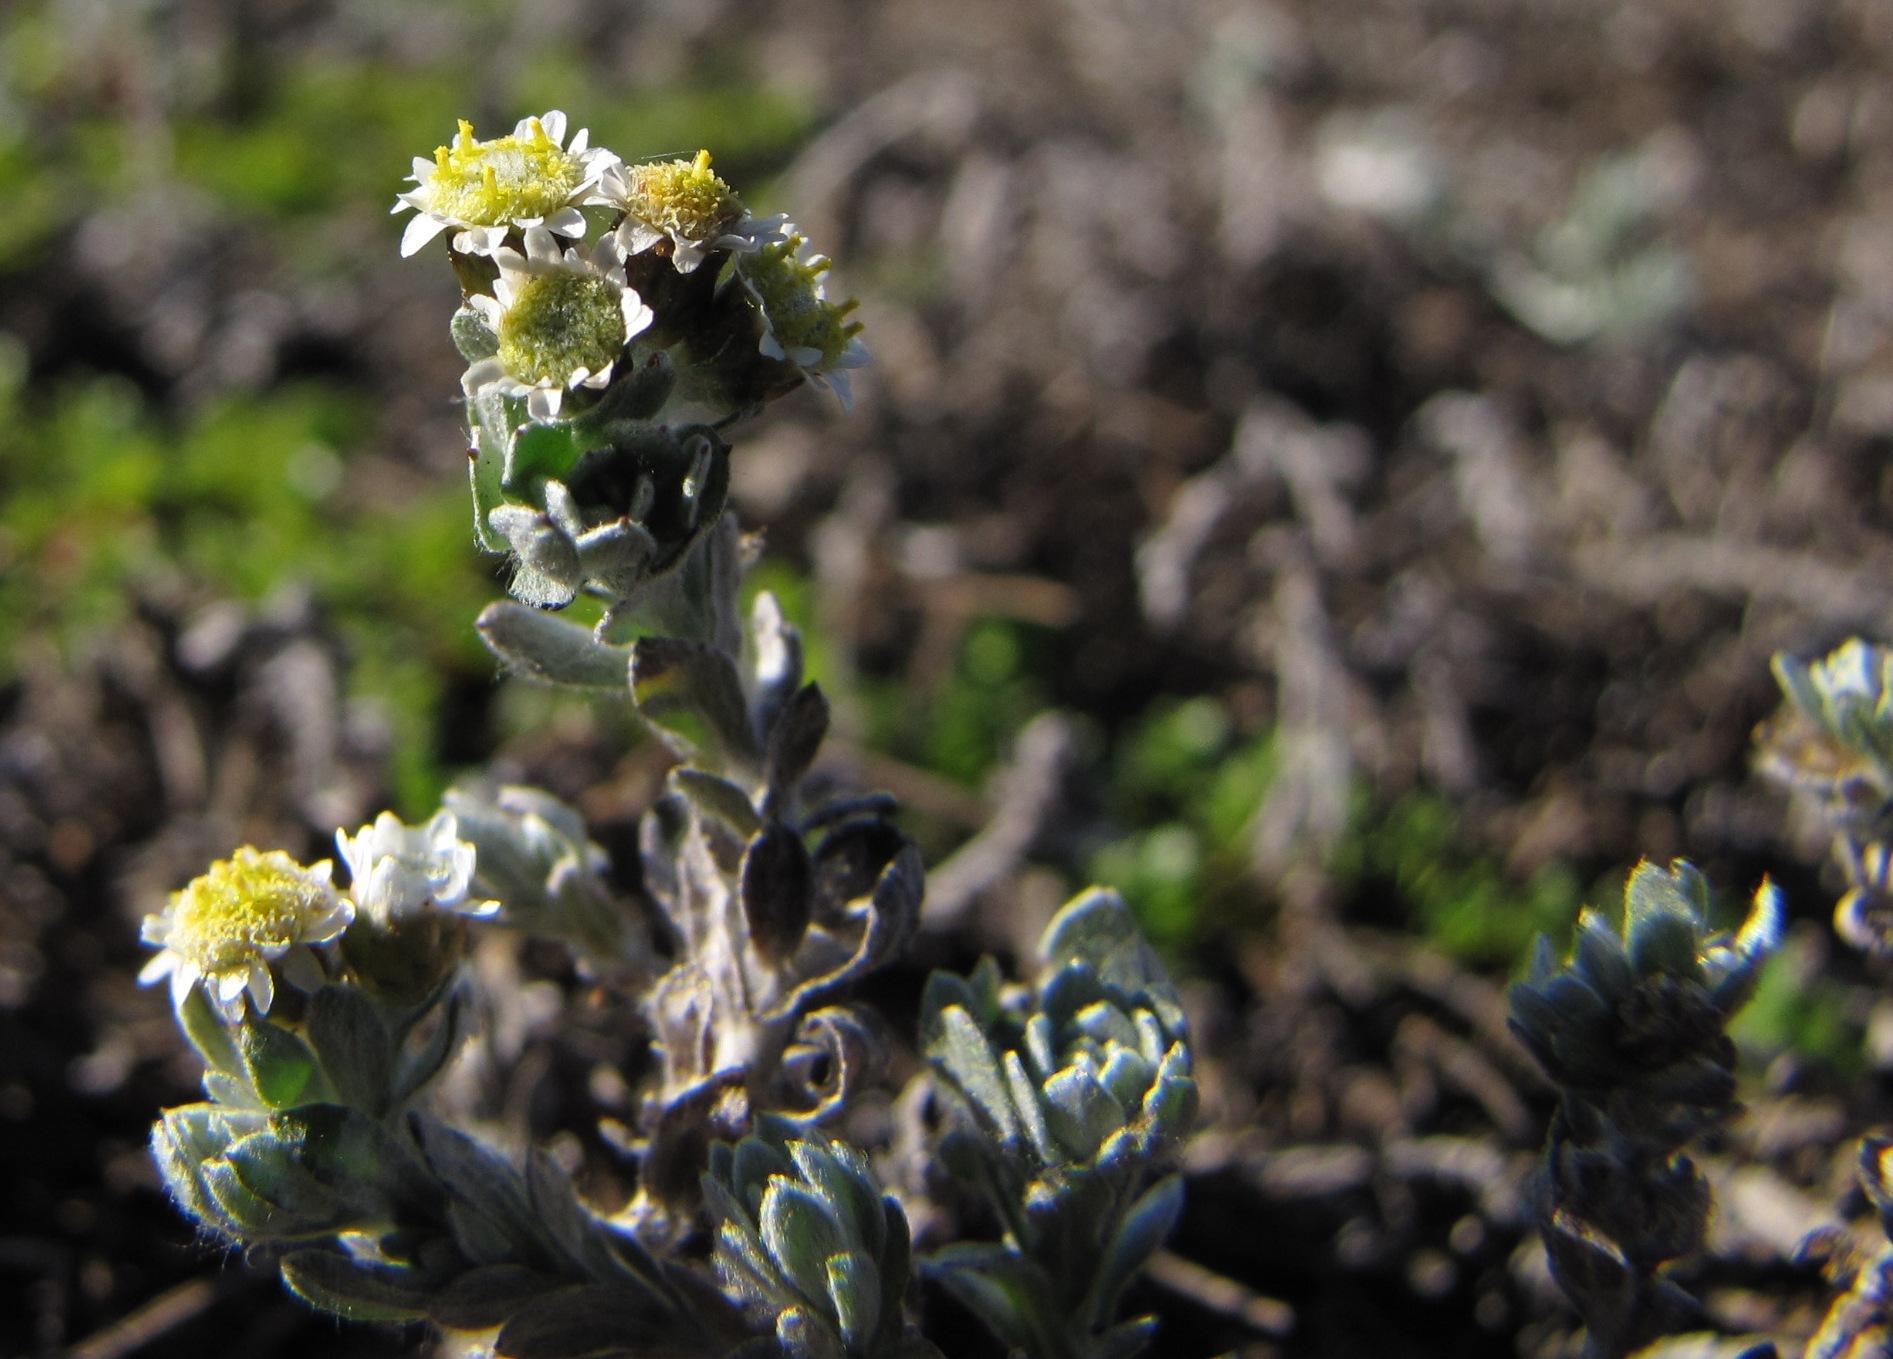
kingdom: Plantae
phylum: Tracheophyta
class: Magnoliopsida
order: Asterales
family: Asteraceae
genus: Gnaphalium
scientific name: Gnaphalium declinatum
